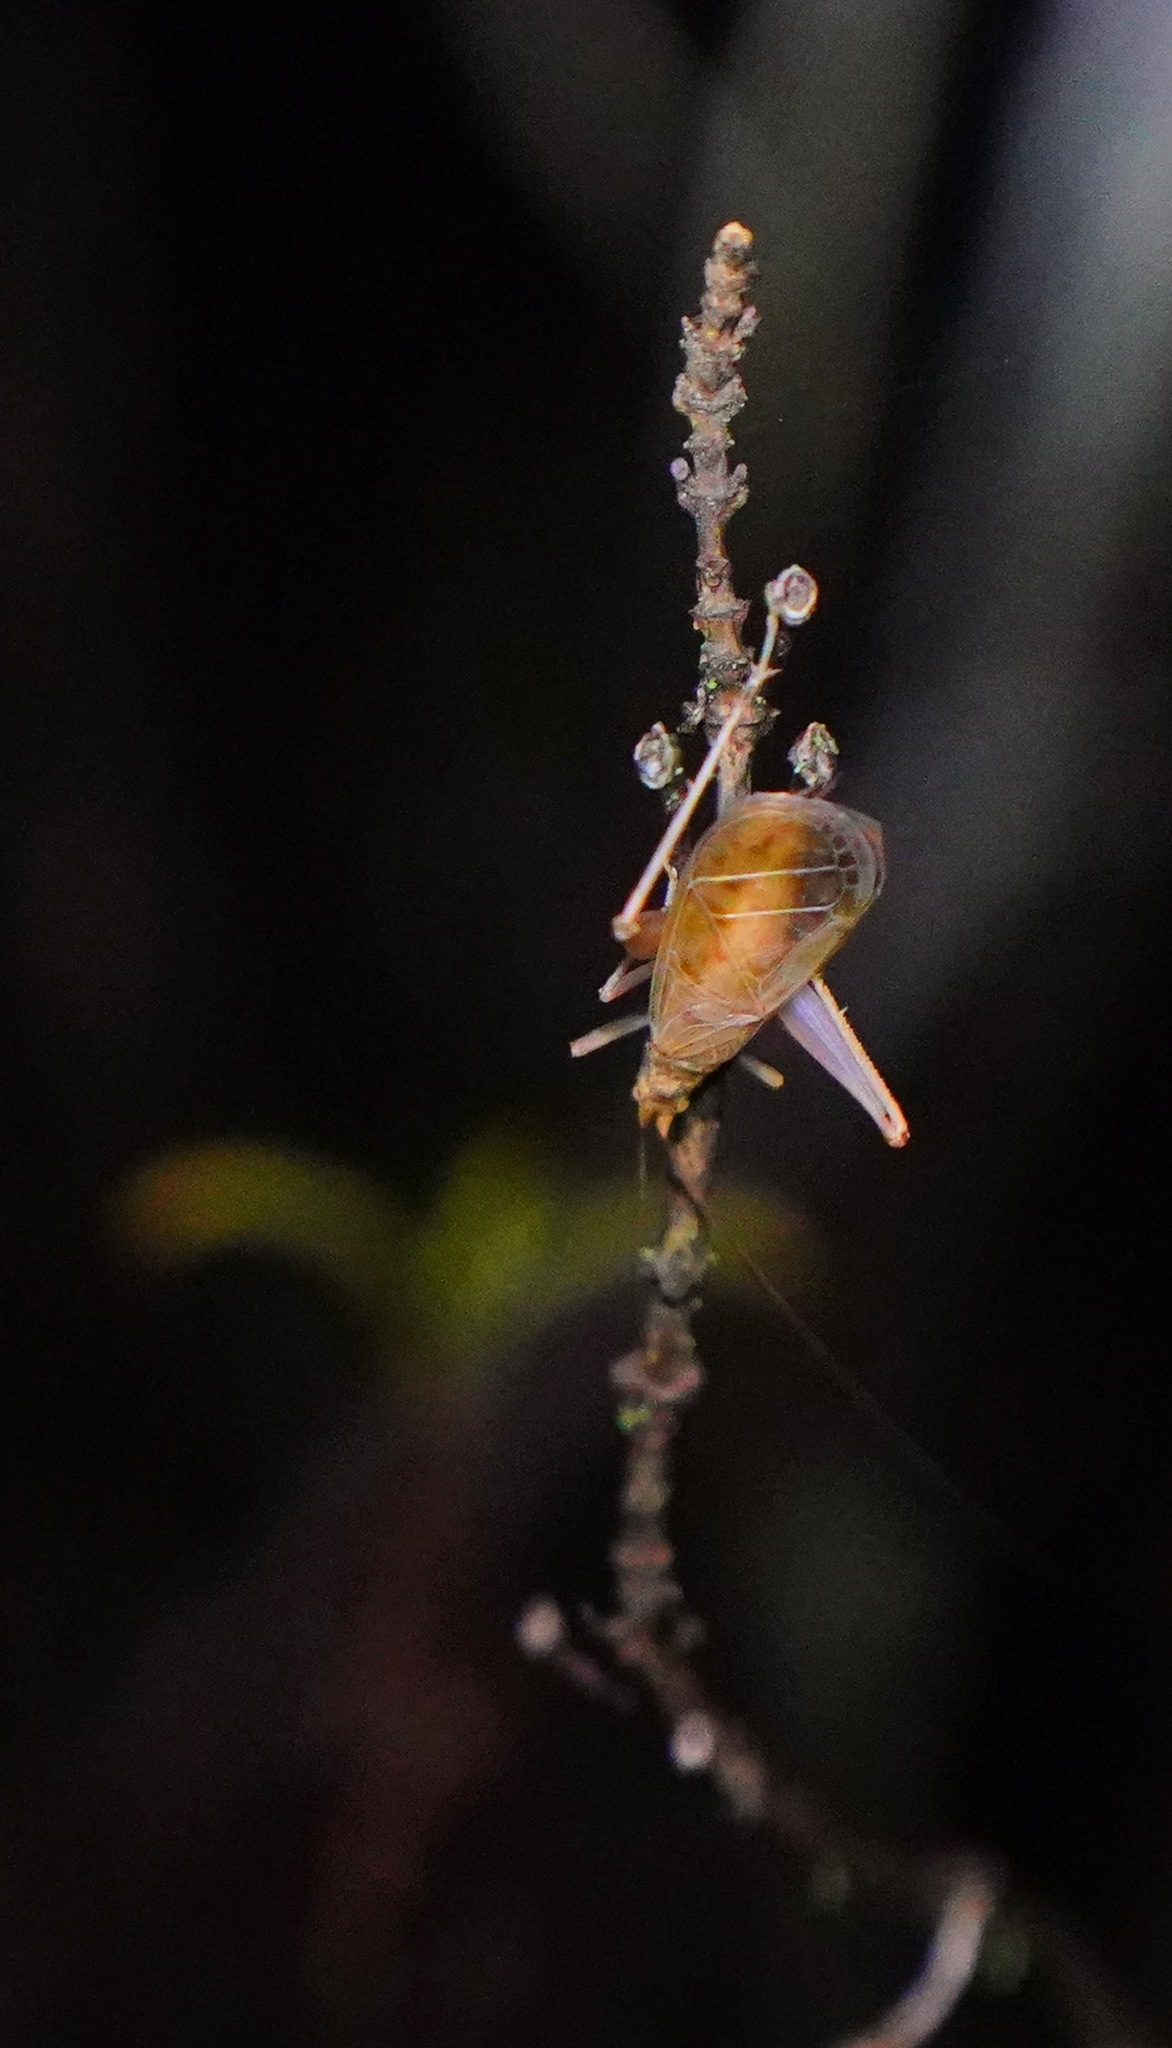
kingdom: Animalia
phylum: Arthropoda
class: Insecta
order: Orthoptera
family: Gryllidae
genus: Oecanthus
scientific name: Oecanthus californicus
